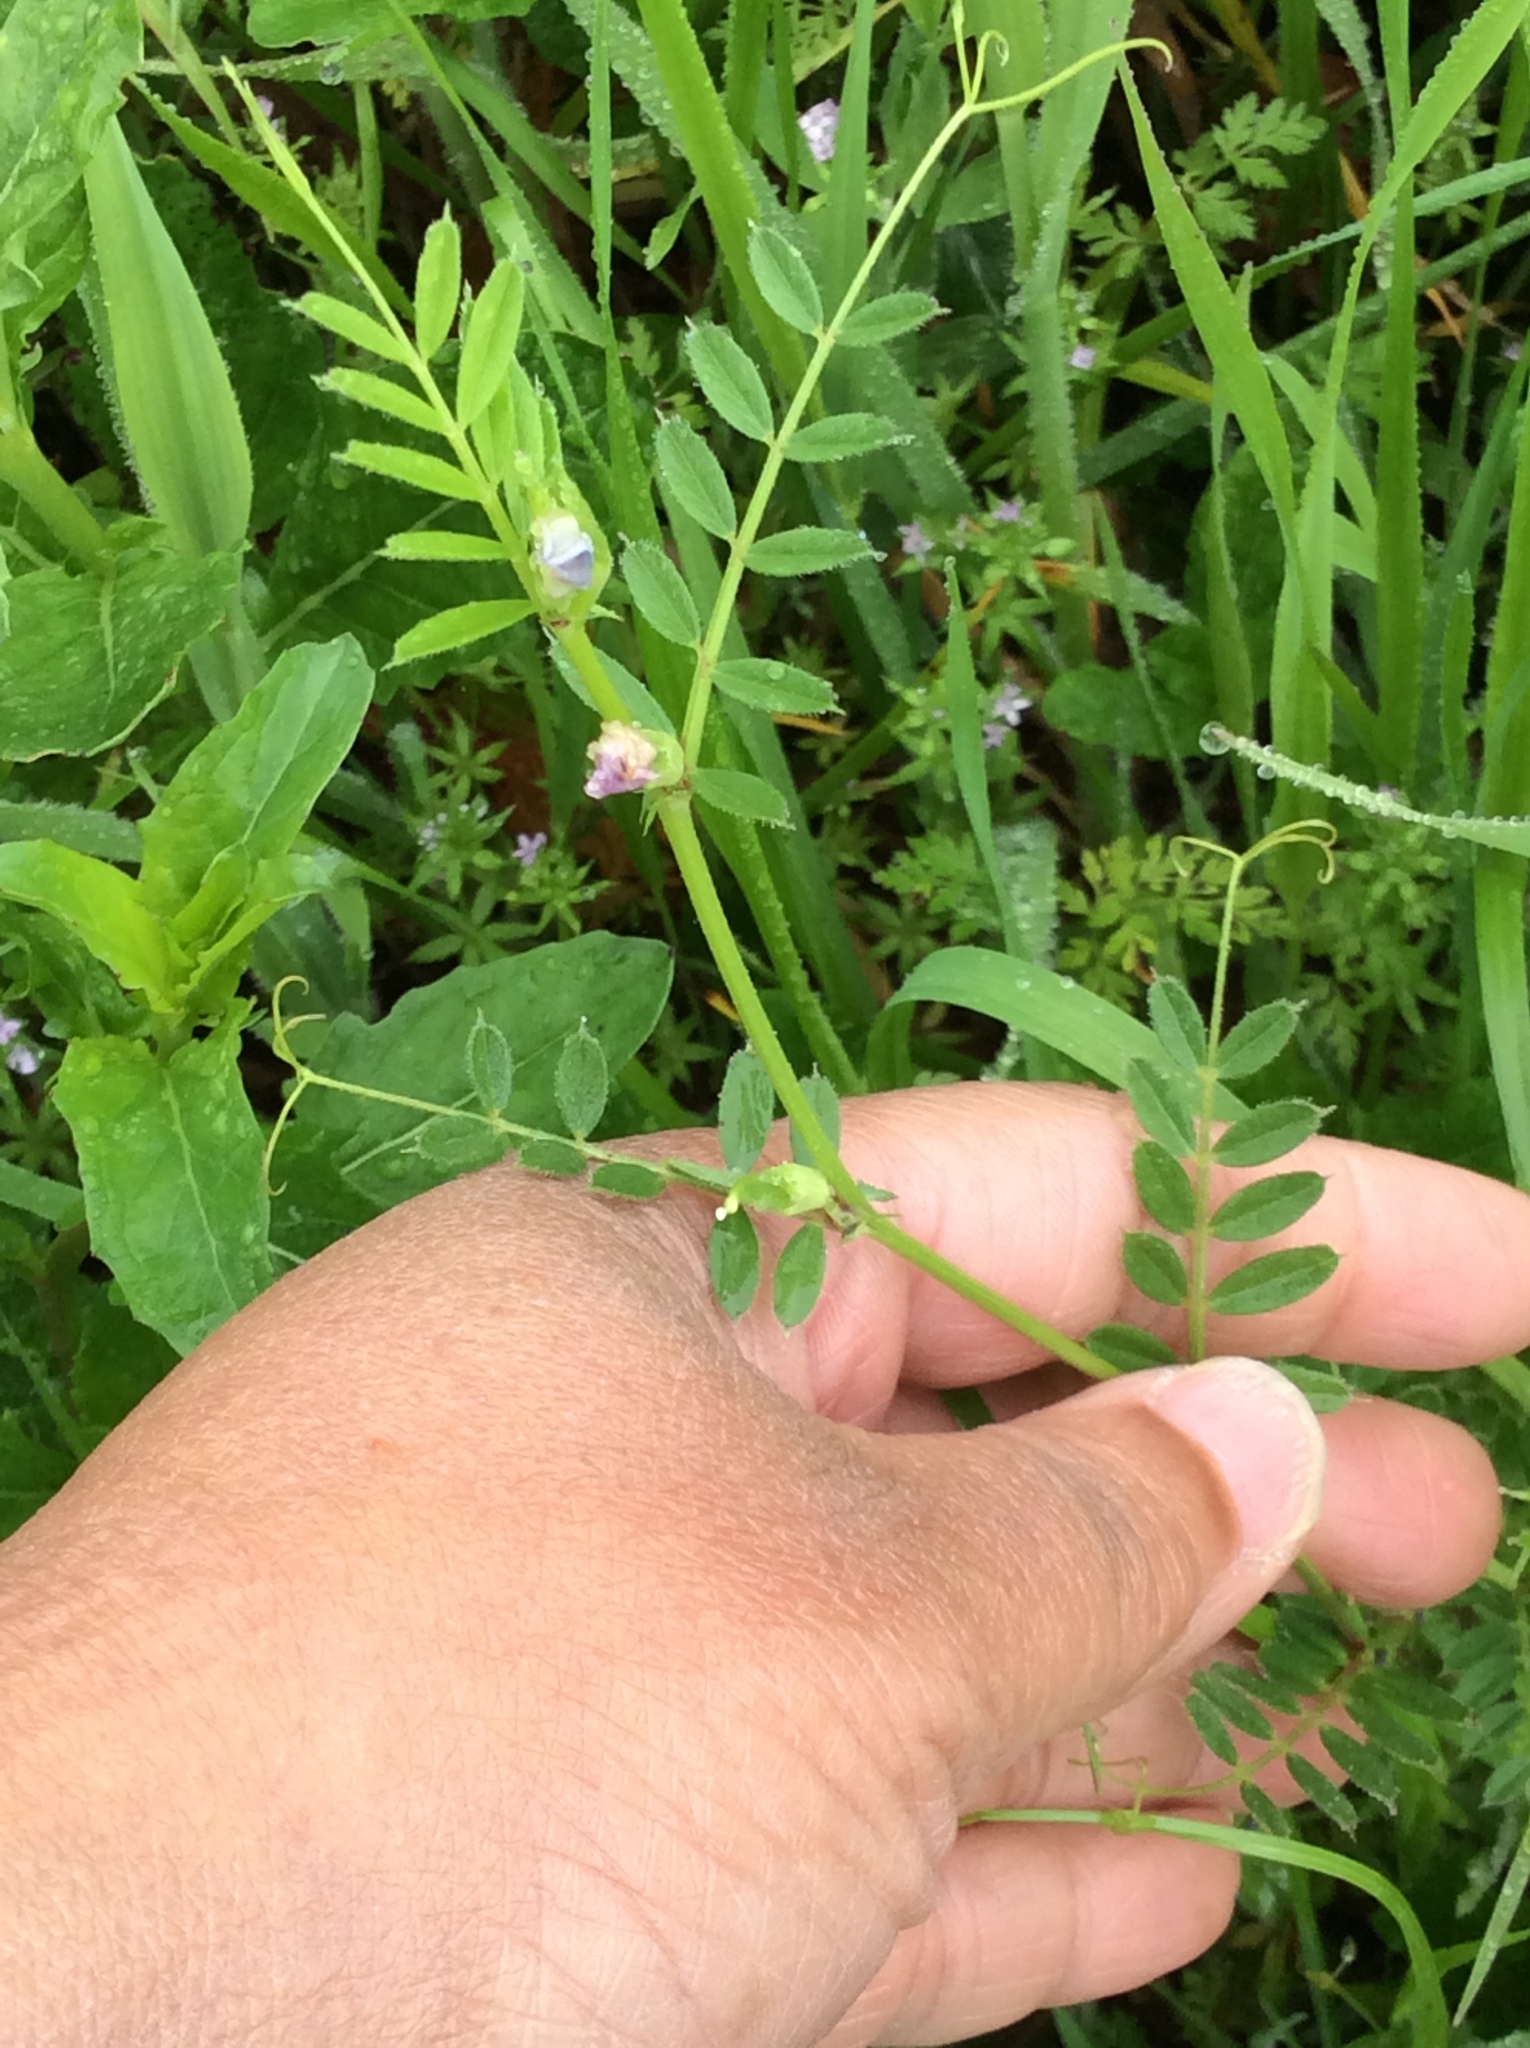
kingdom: Plantae
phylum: Tracheophyta
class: Magnoliopsida
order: Fabales
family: Fabaceae
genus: Vicia
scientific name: Vicia sativa
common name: Garden vetch
